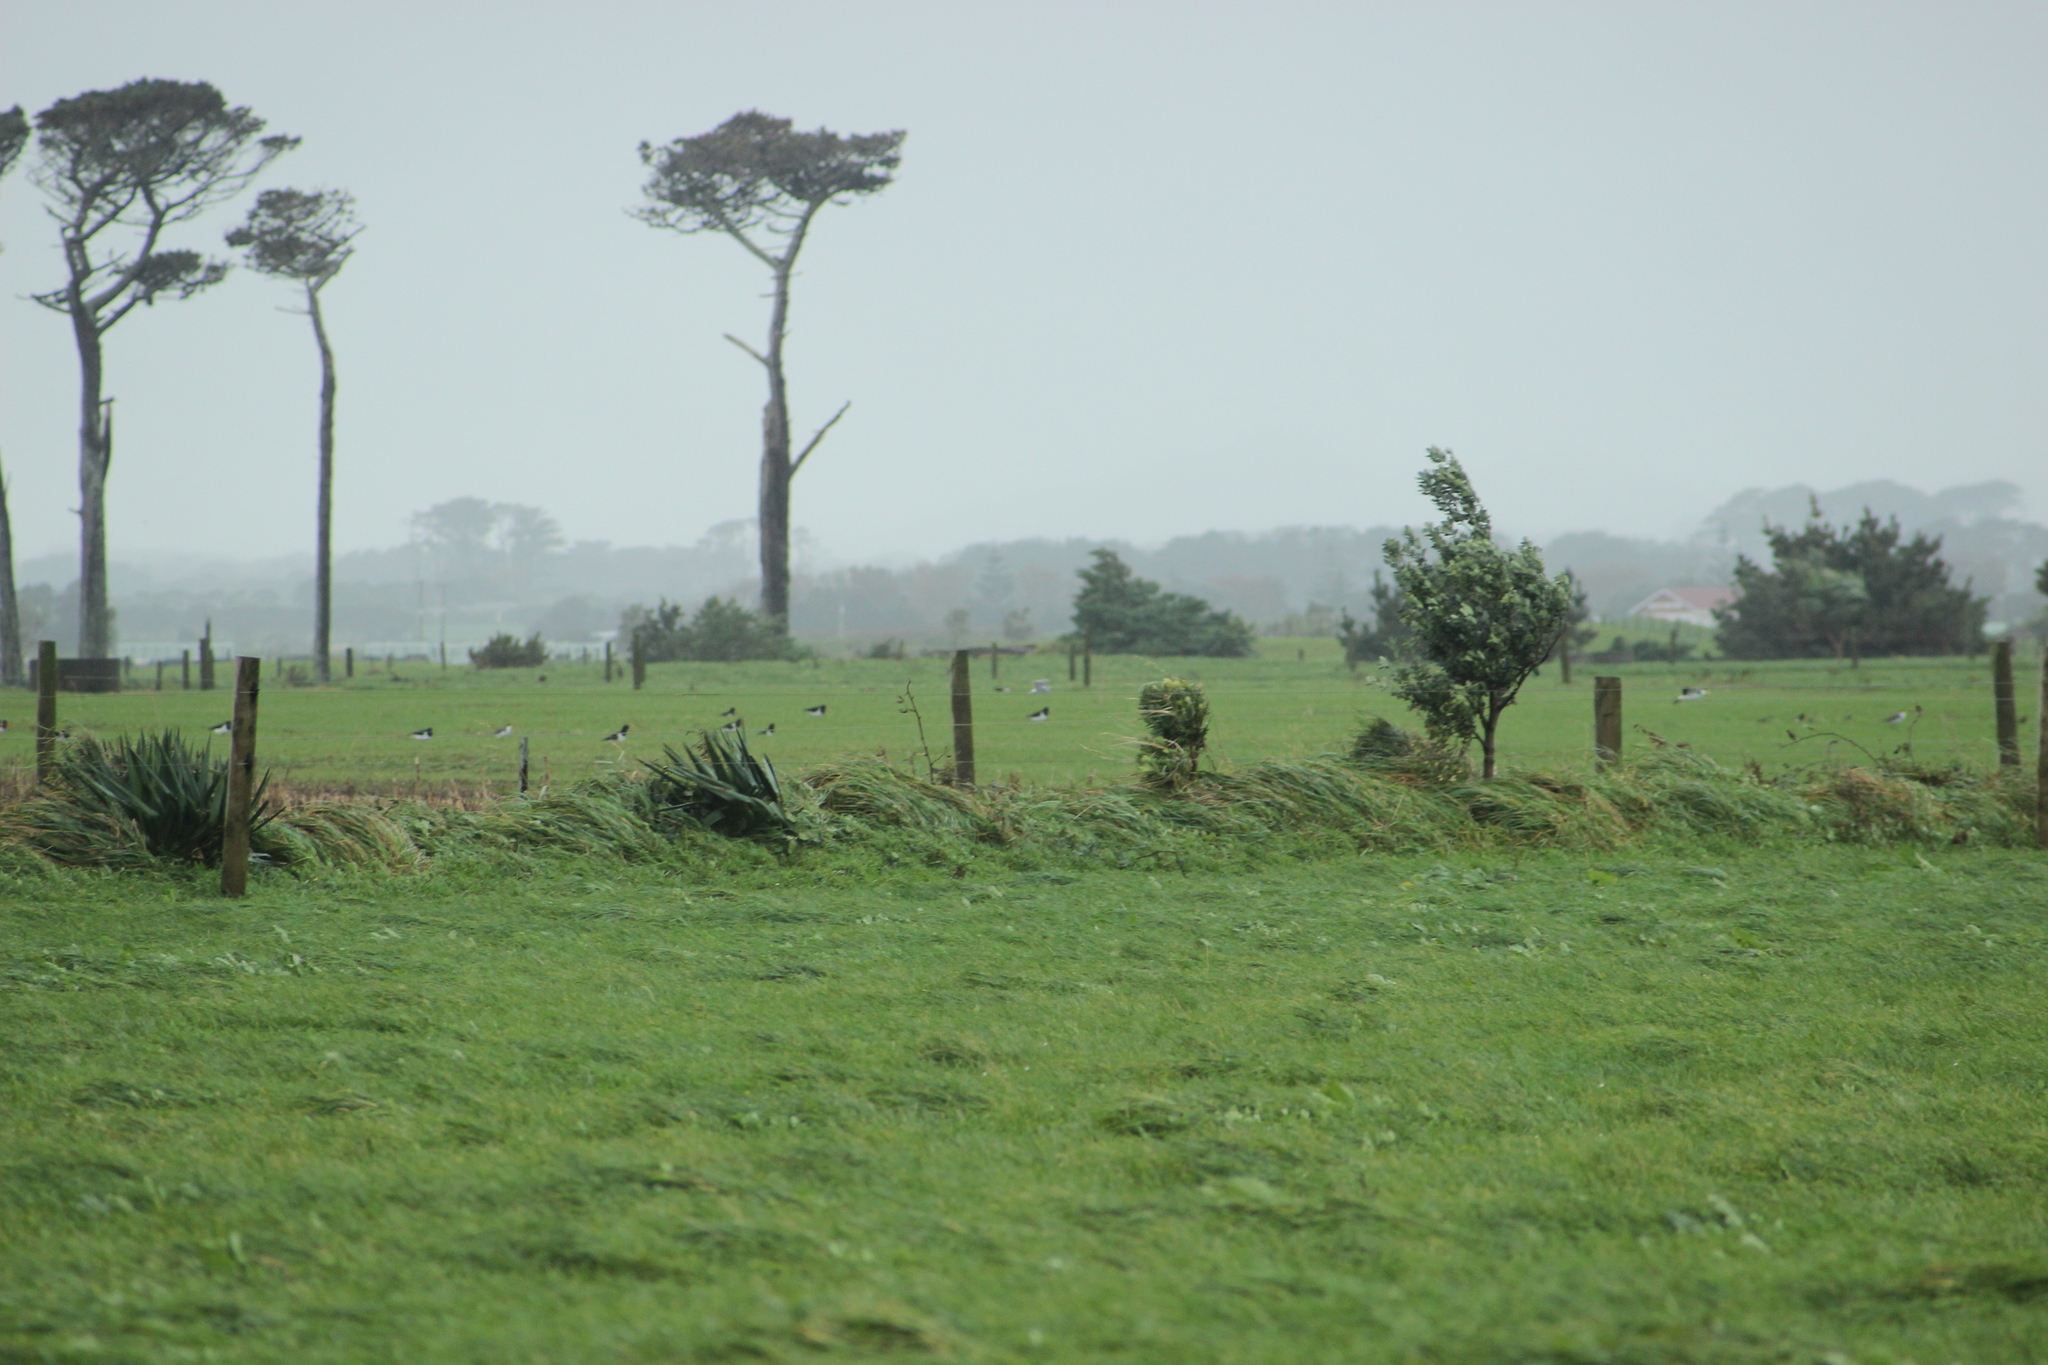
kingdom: Animalia
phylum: Chordata
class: Aves
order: Charadriiformes
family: Haematopodidae
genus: Haematopus
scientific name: Haematopus finschi
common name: South island oystercatcher
